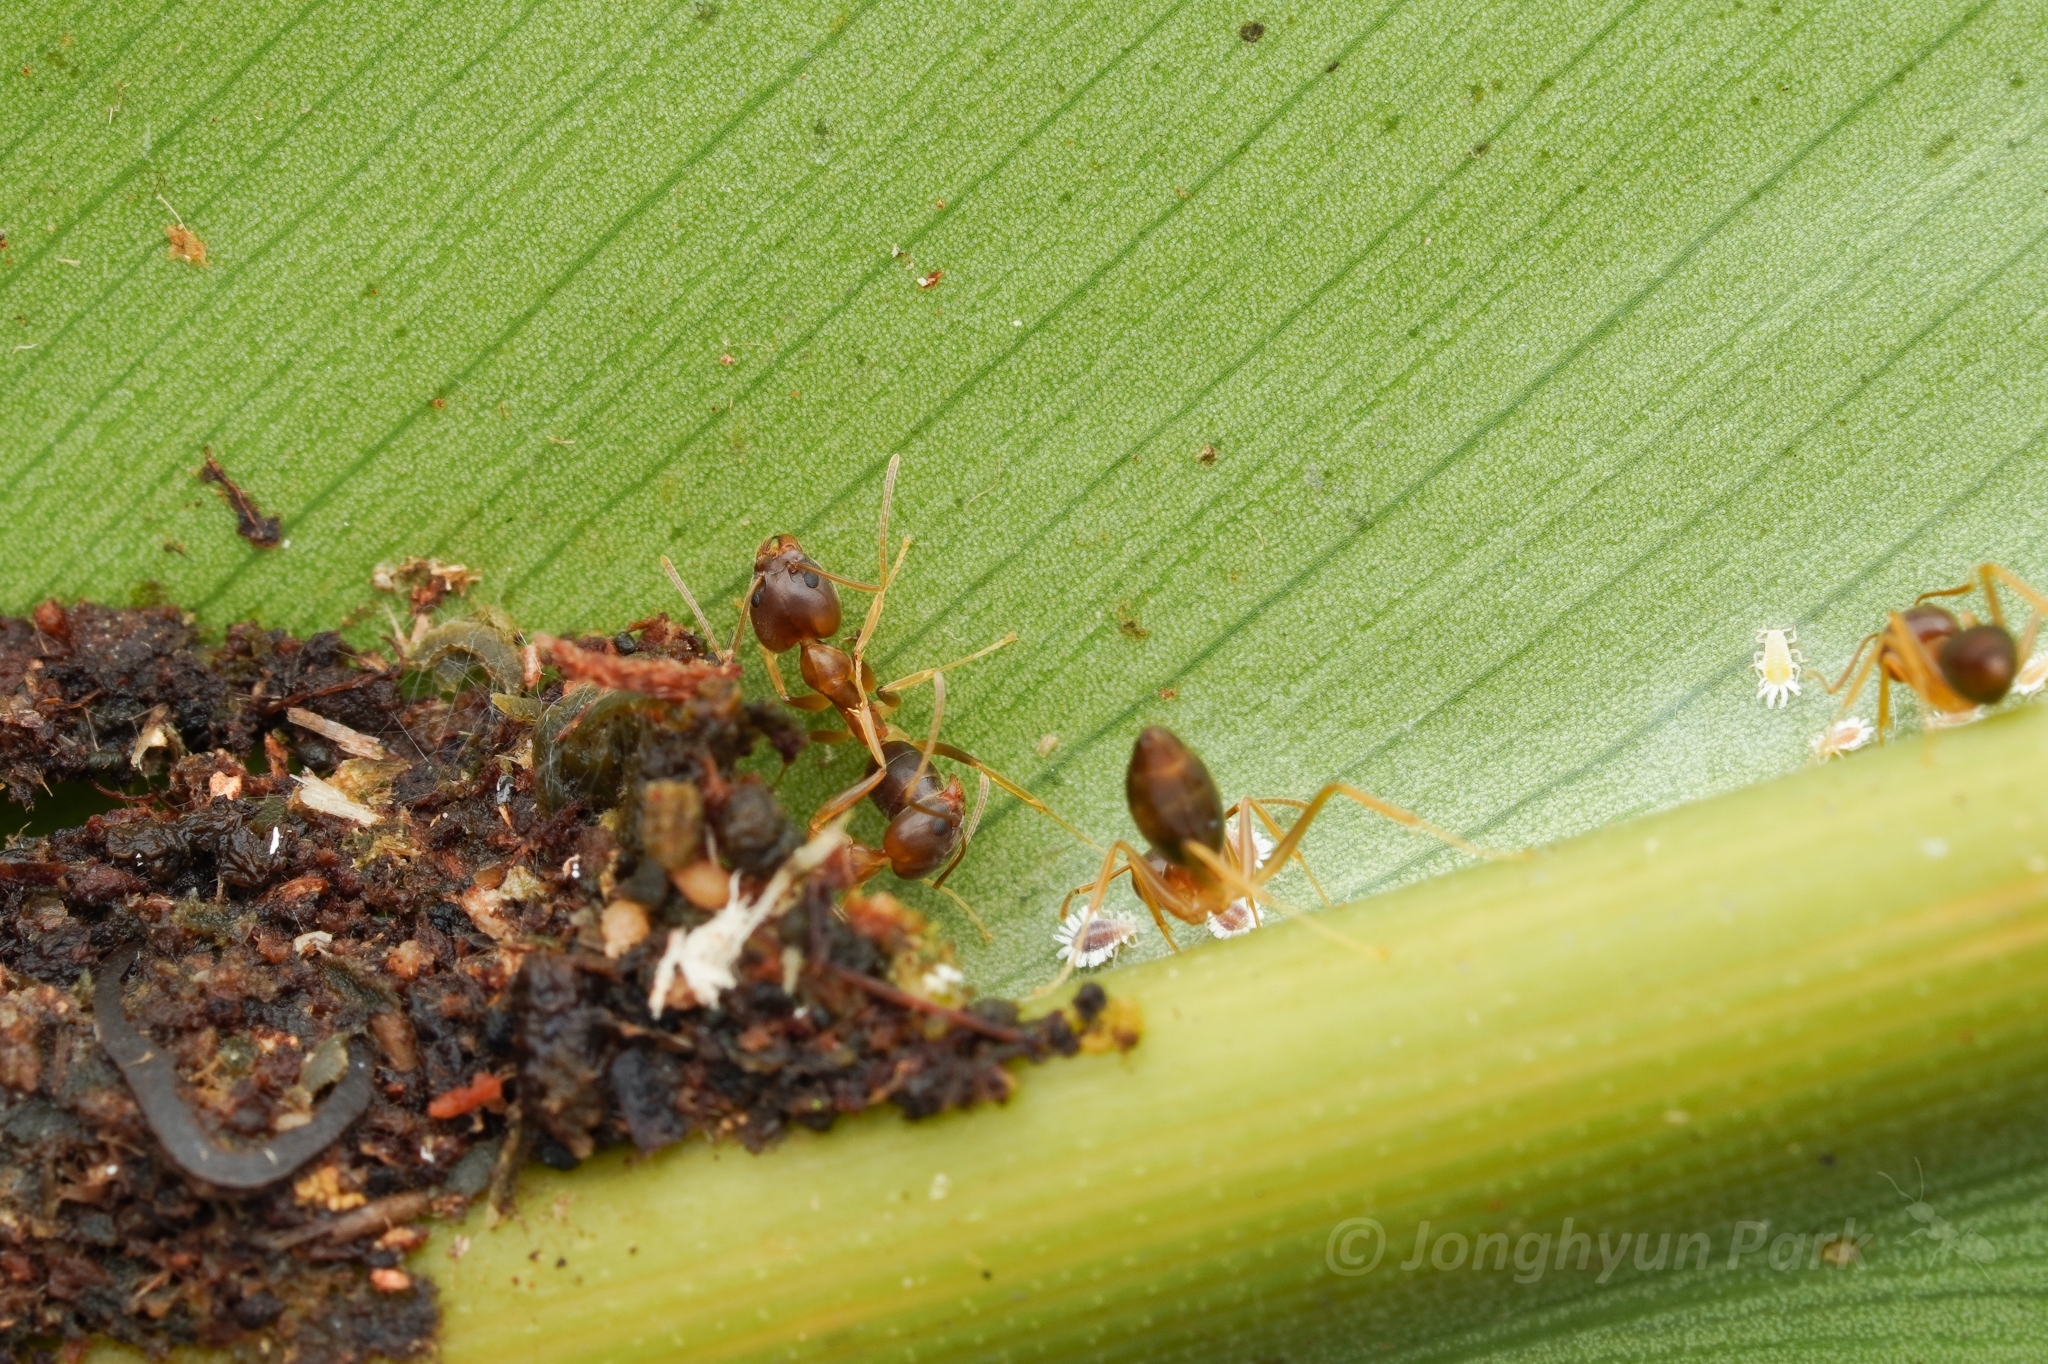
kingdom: Animalia
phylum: Arthropoda
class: Insecta
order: Hymenoptera
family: Formicidae
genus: Technomyrmex
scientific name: Technomyrmex lisae
